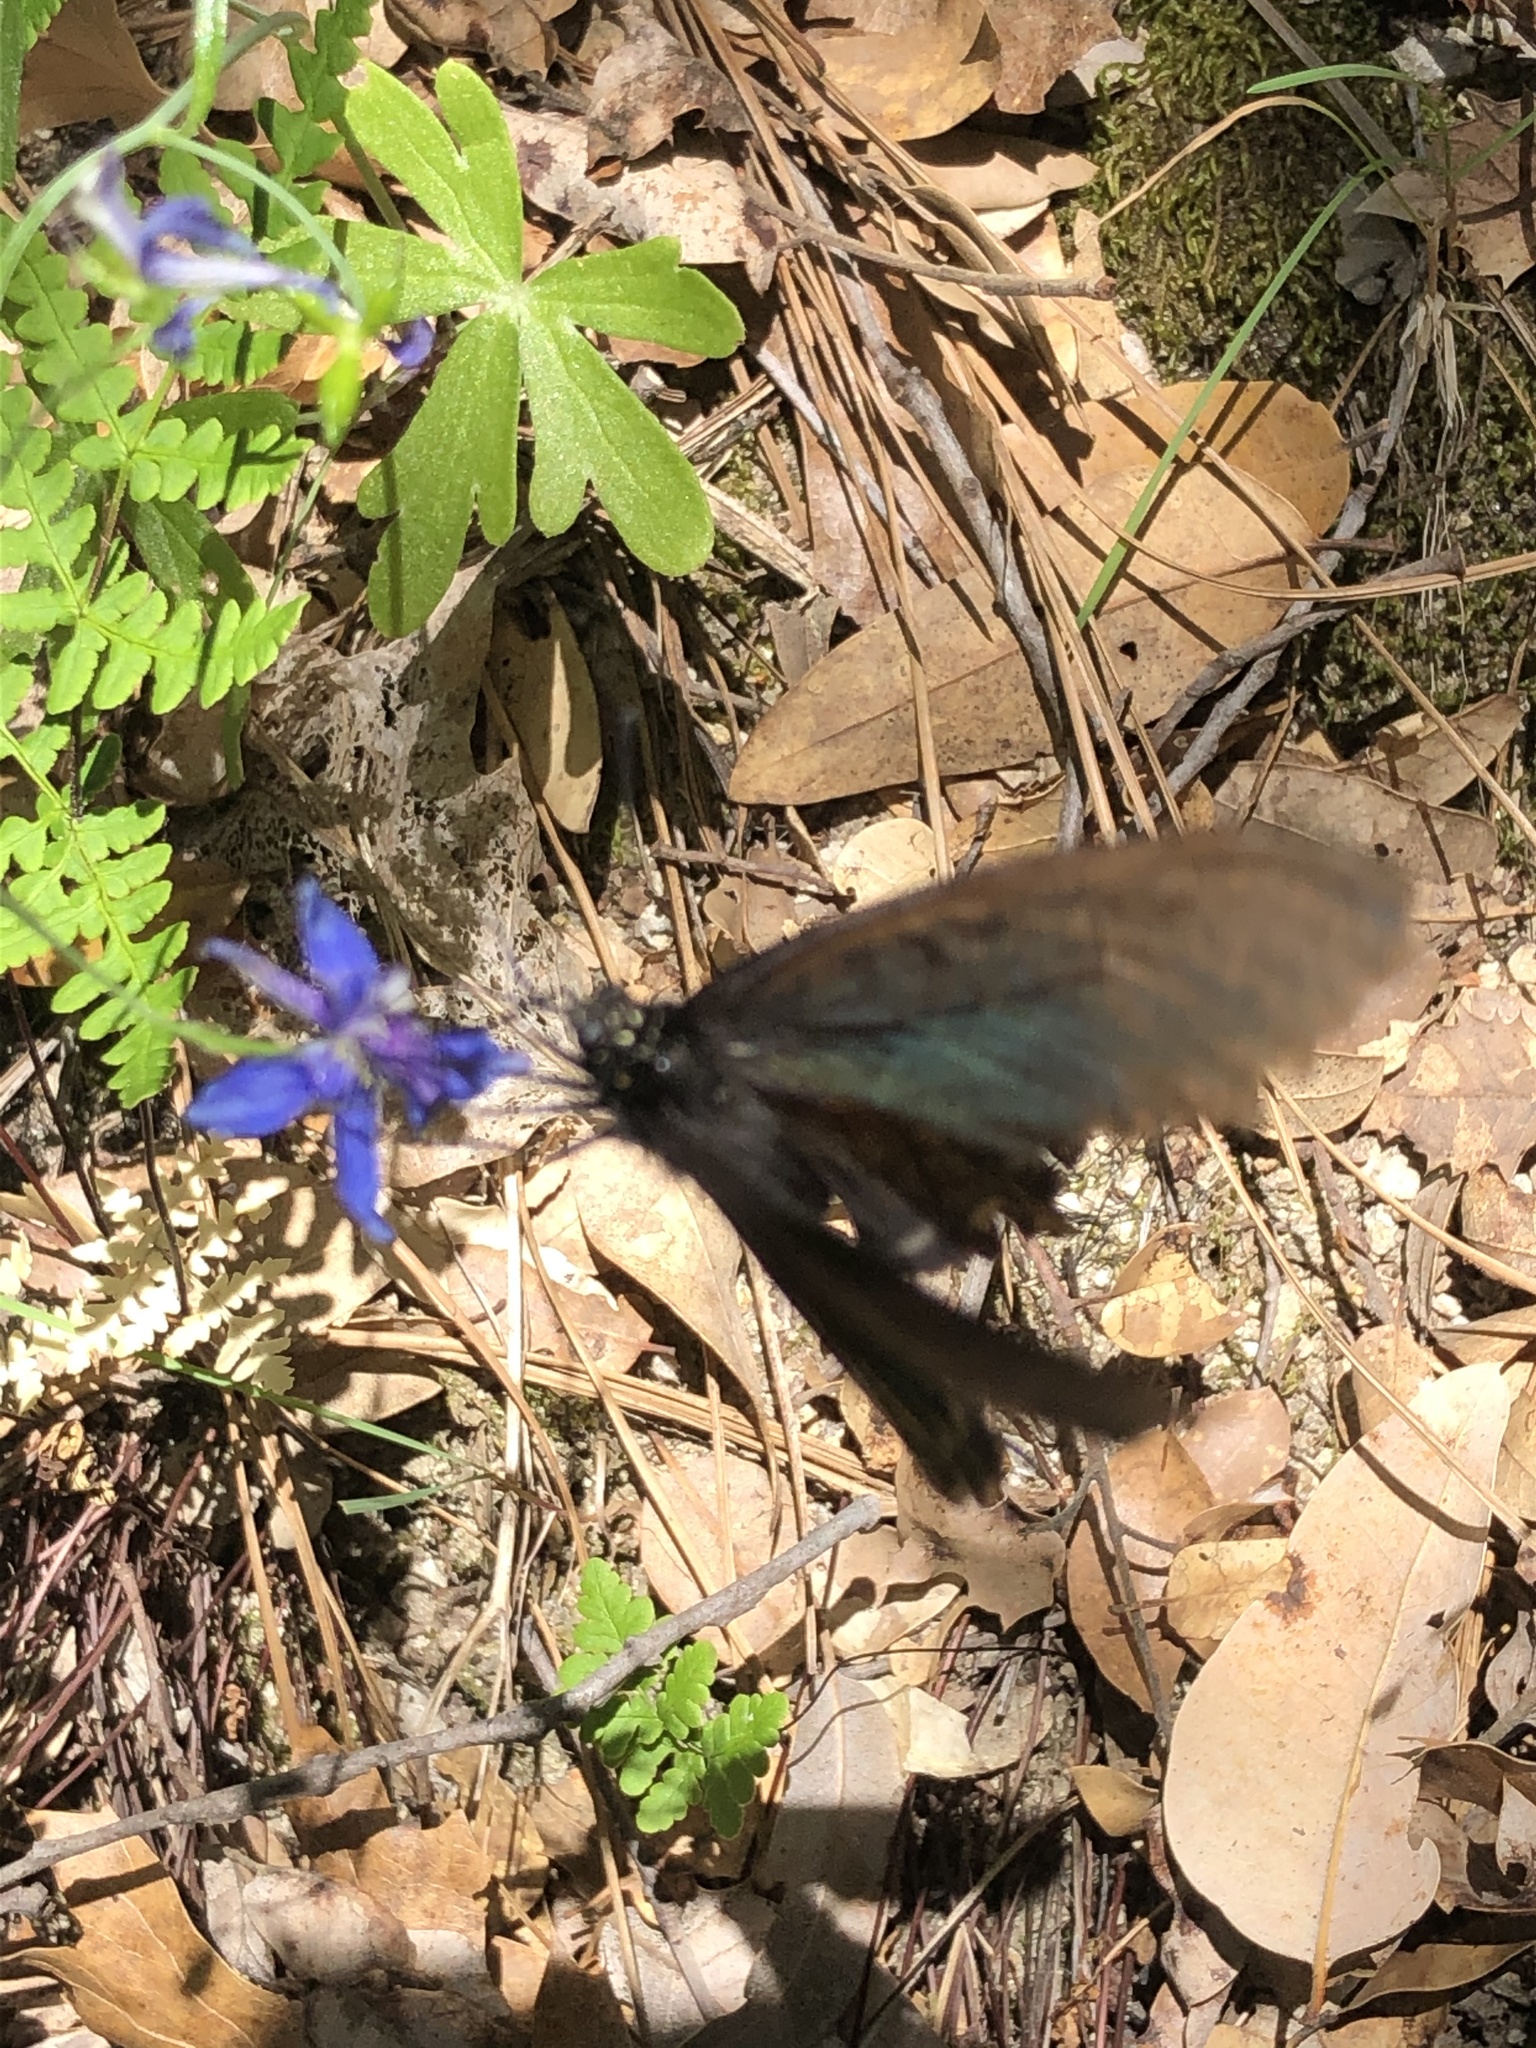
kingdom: Animalia
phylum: Arthropoda
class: Insecta
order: Lepidoptera
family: Papilionidae
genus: Battus
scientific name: Battus philenor
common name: Pipevine swallowtail
